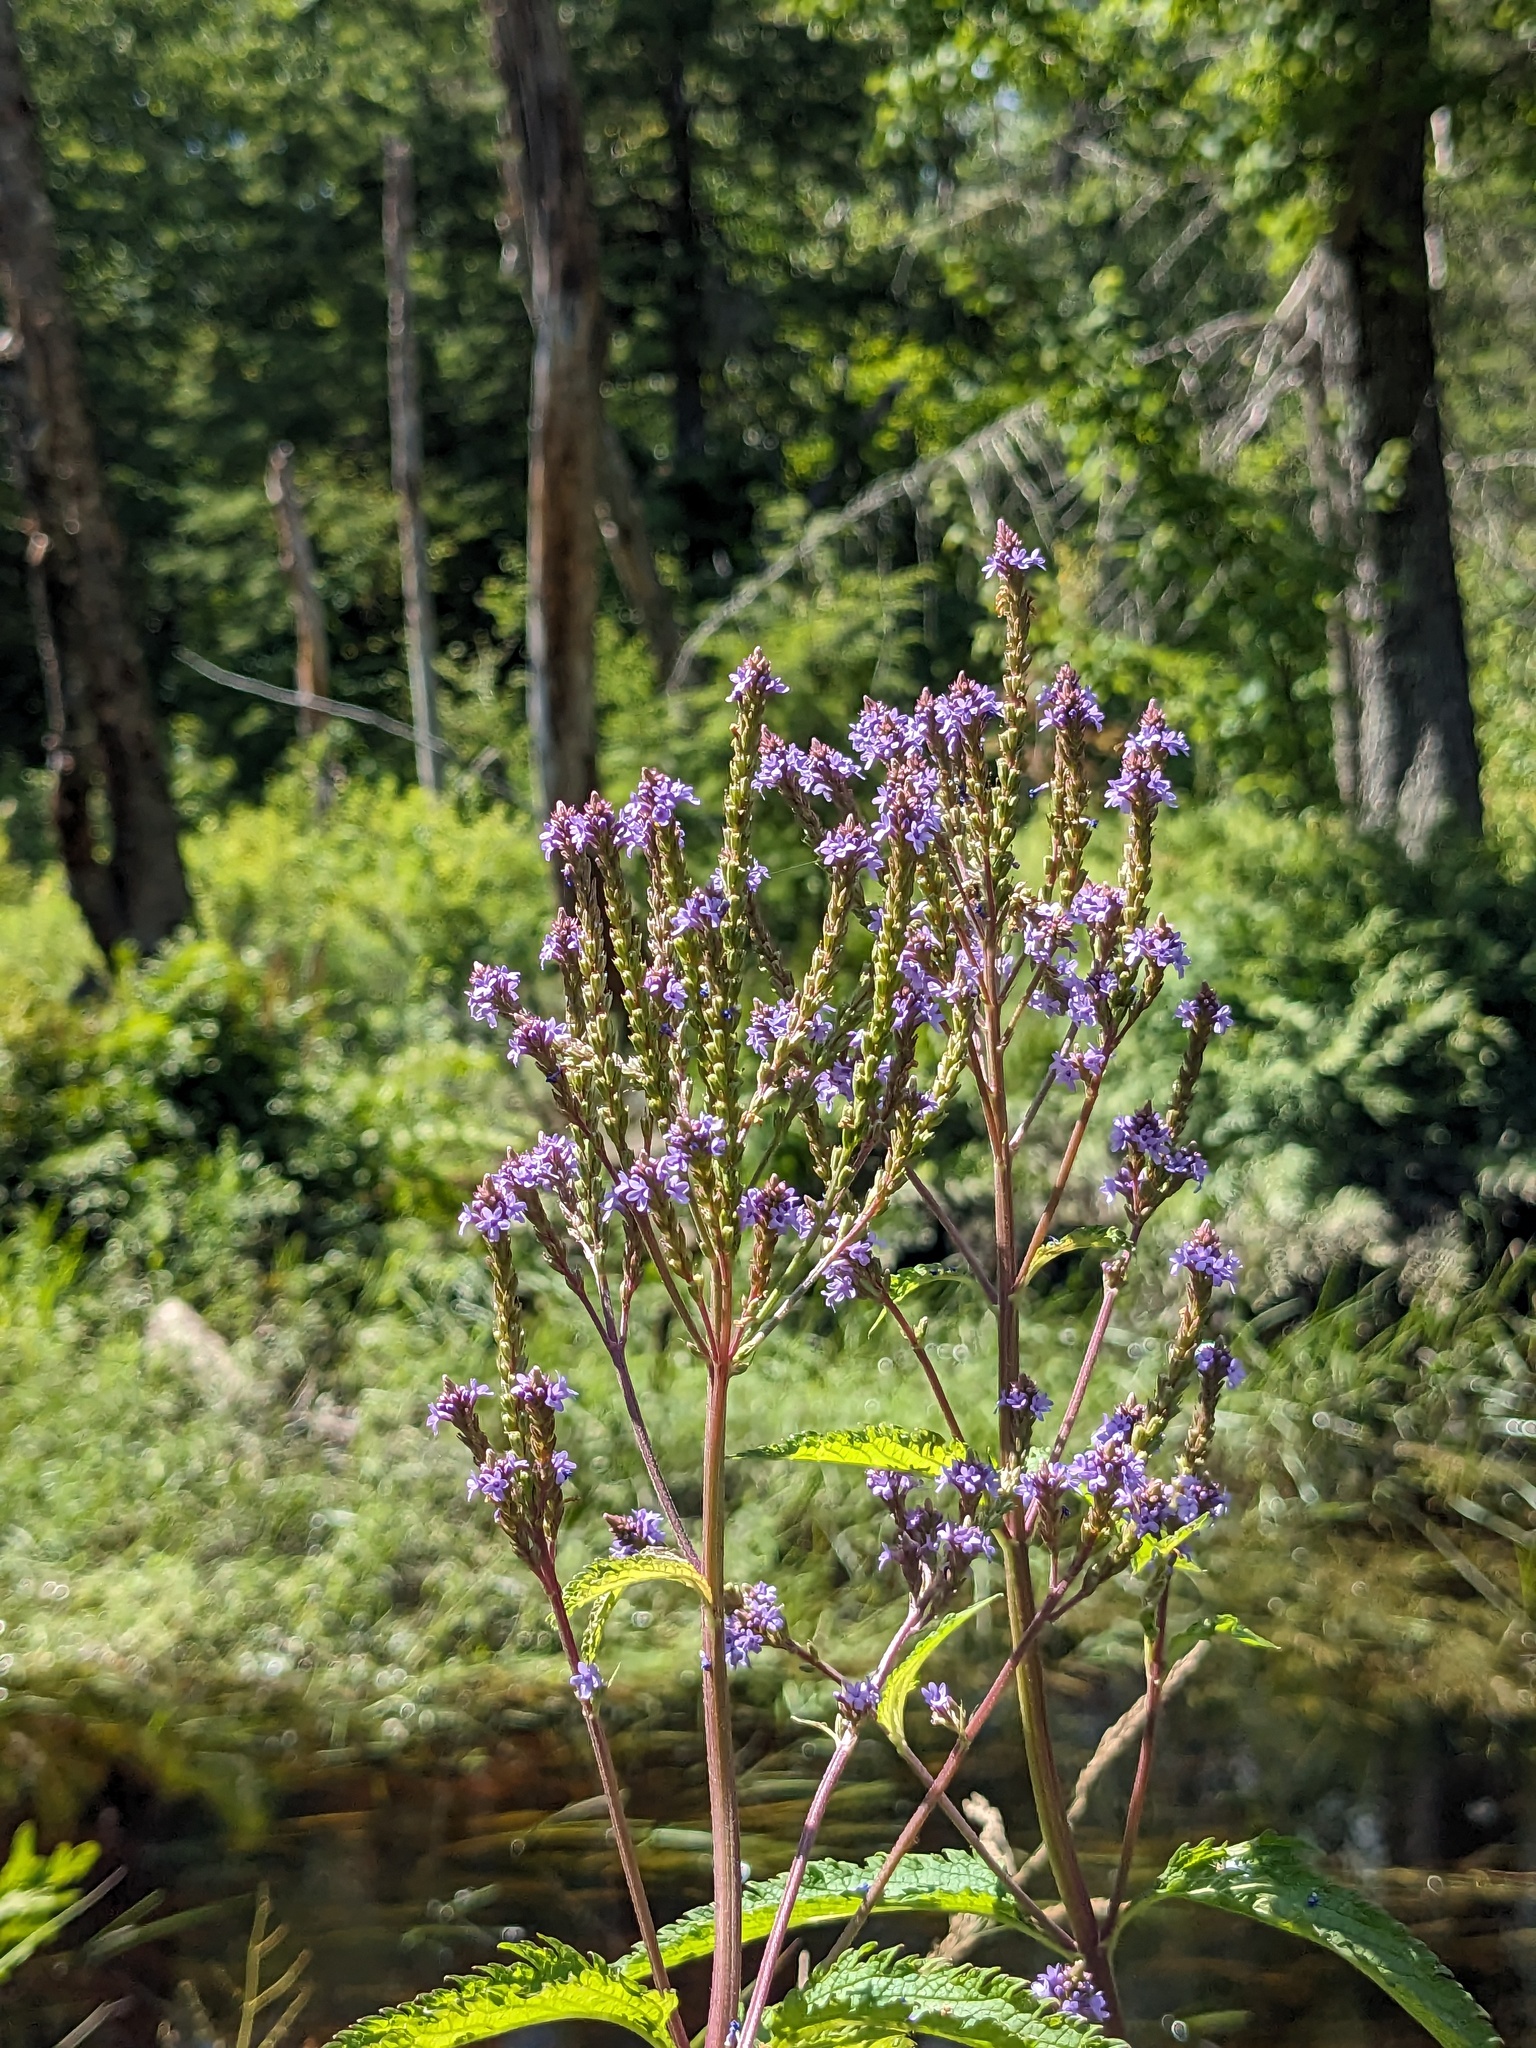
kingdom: Plantae
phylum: Tracheophyta
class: Magnoliopsida
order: Lamiales
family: Verbenaceae
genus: Verbena
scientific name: Verbena hastata
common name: American blue vervain
